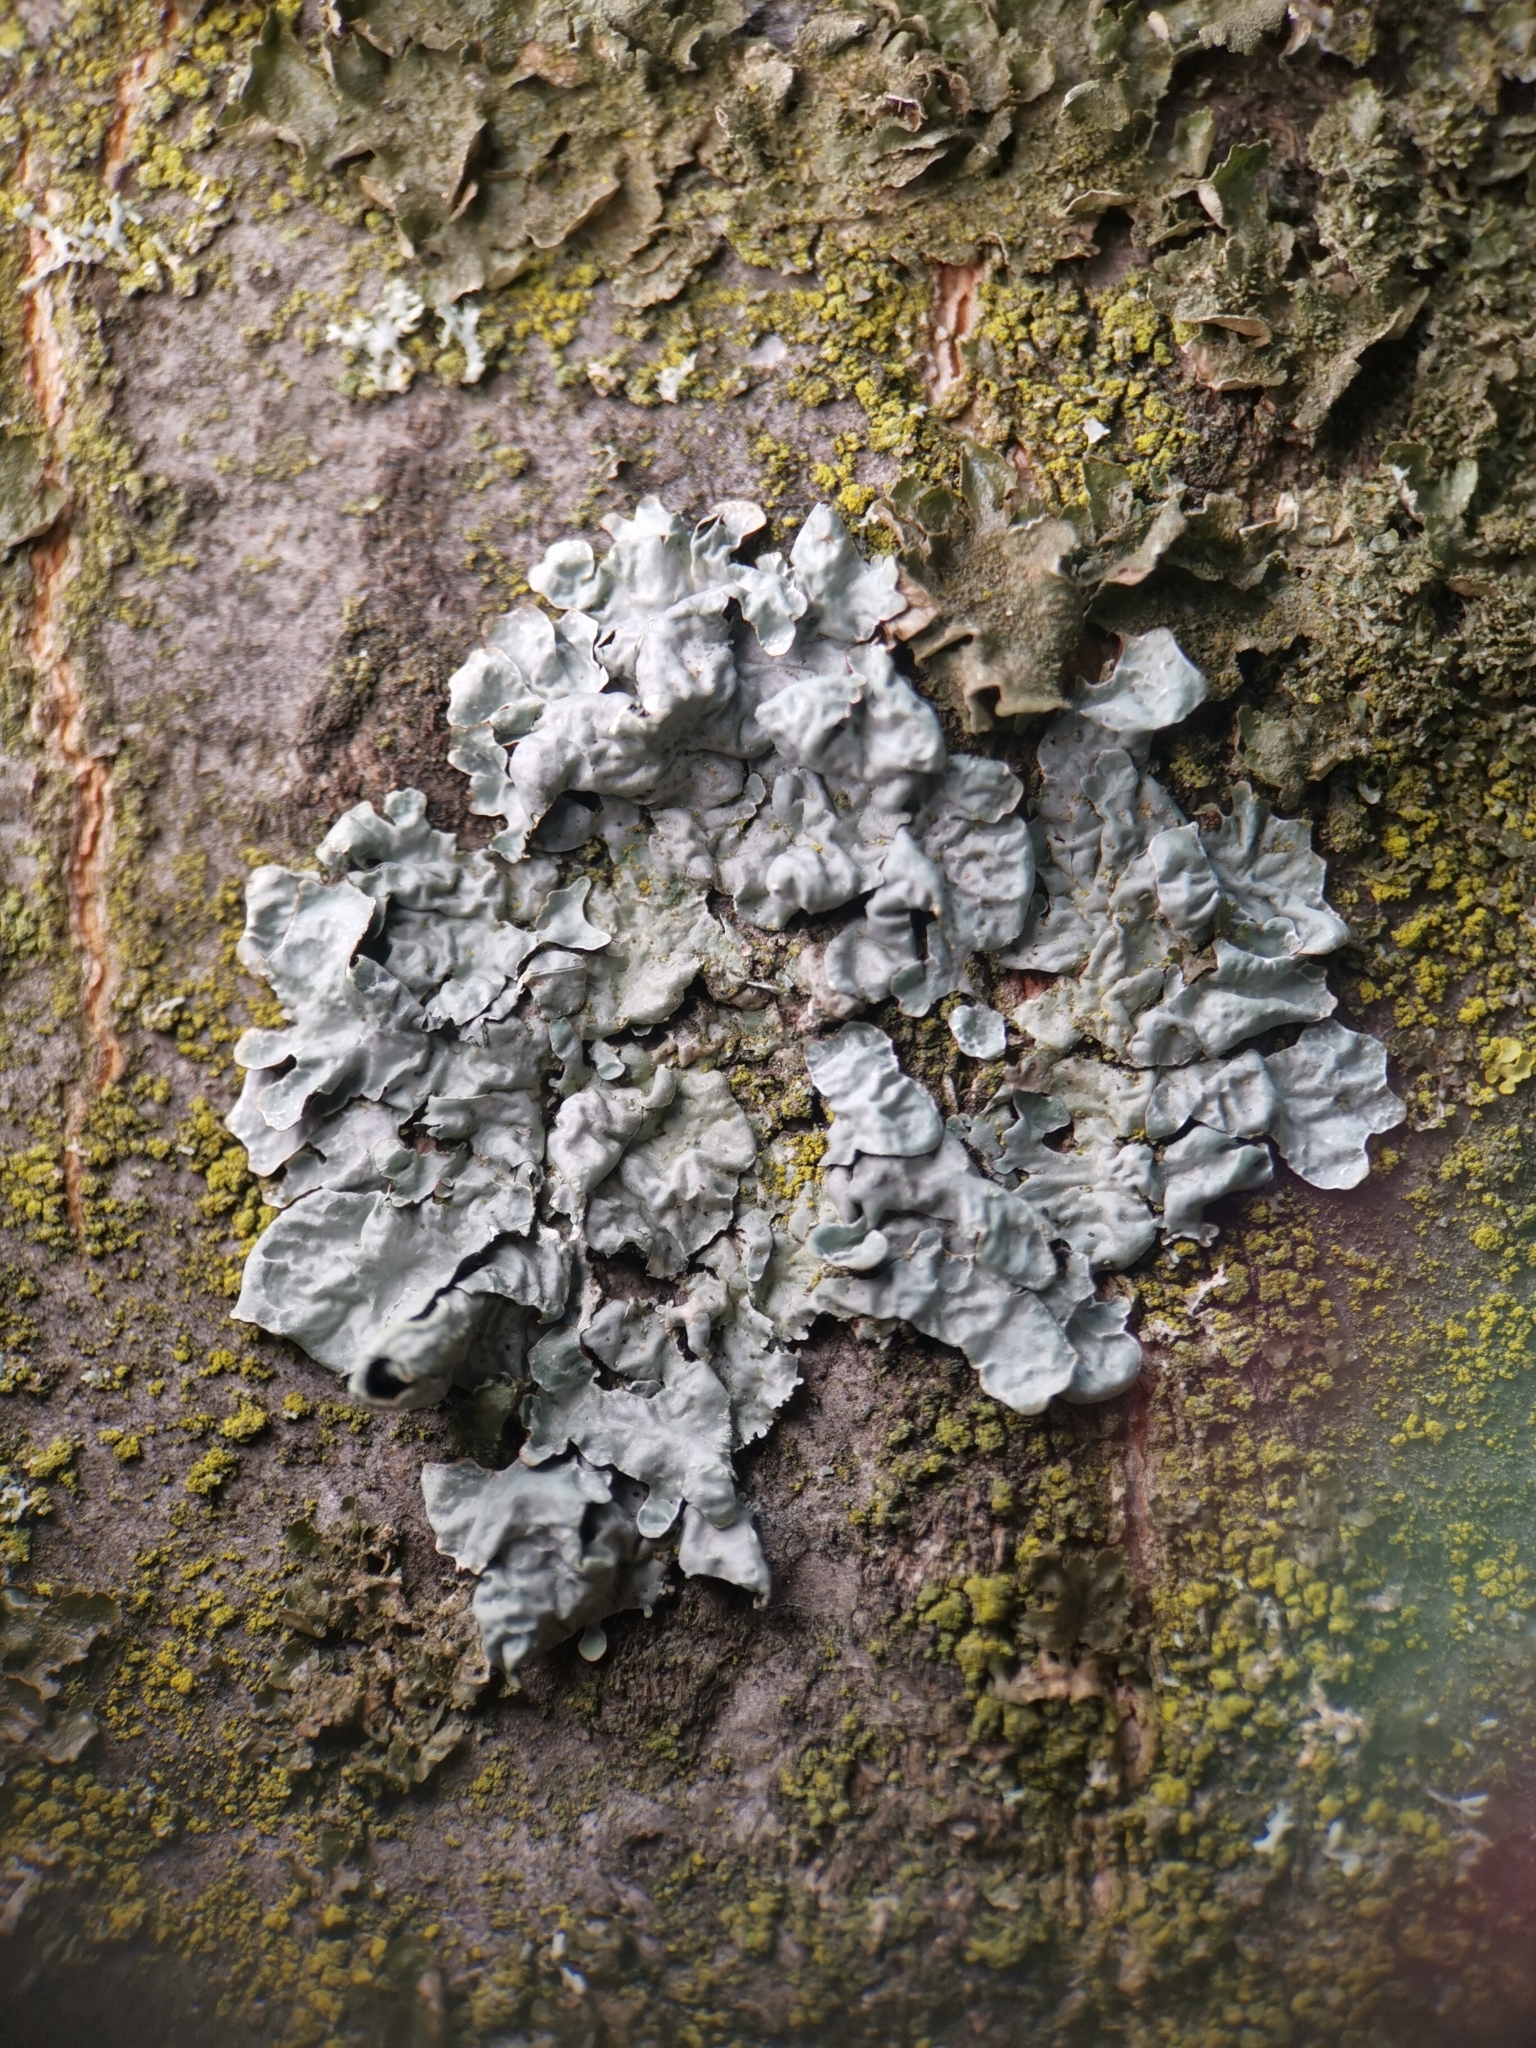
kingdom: Fungi
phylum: Ascomycota
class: Lecanoromycetes
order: Lecanorales
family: Parmeliaceae
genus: Parmelia
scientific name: Parmelia sulcata
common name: Netted shield lichen
